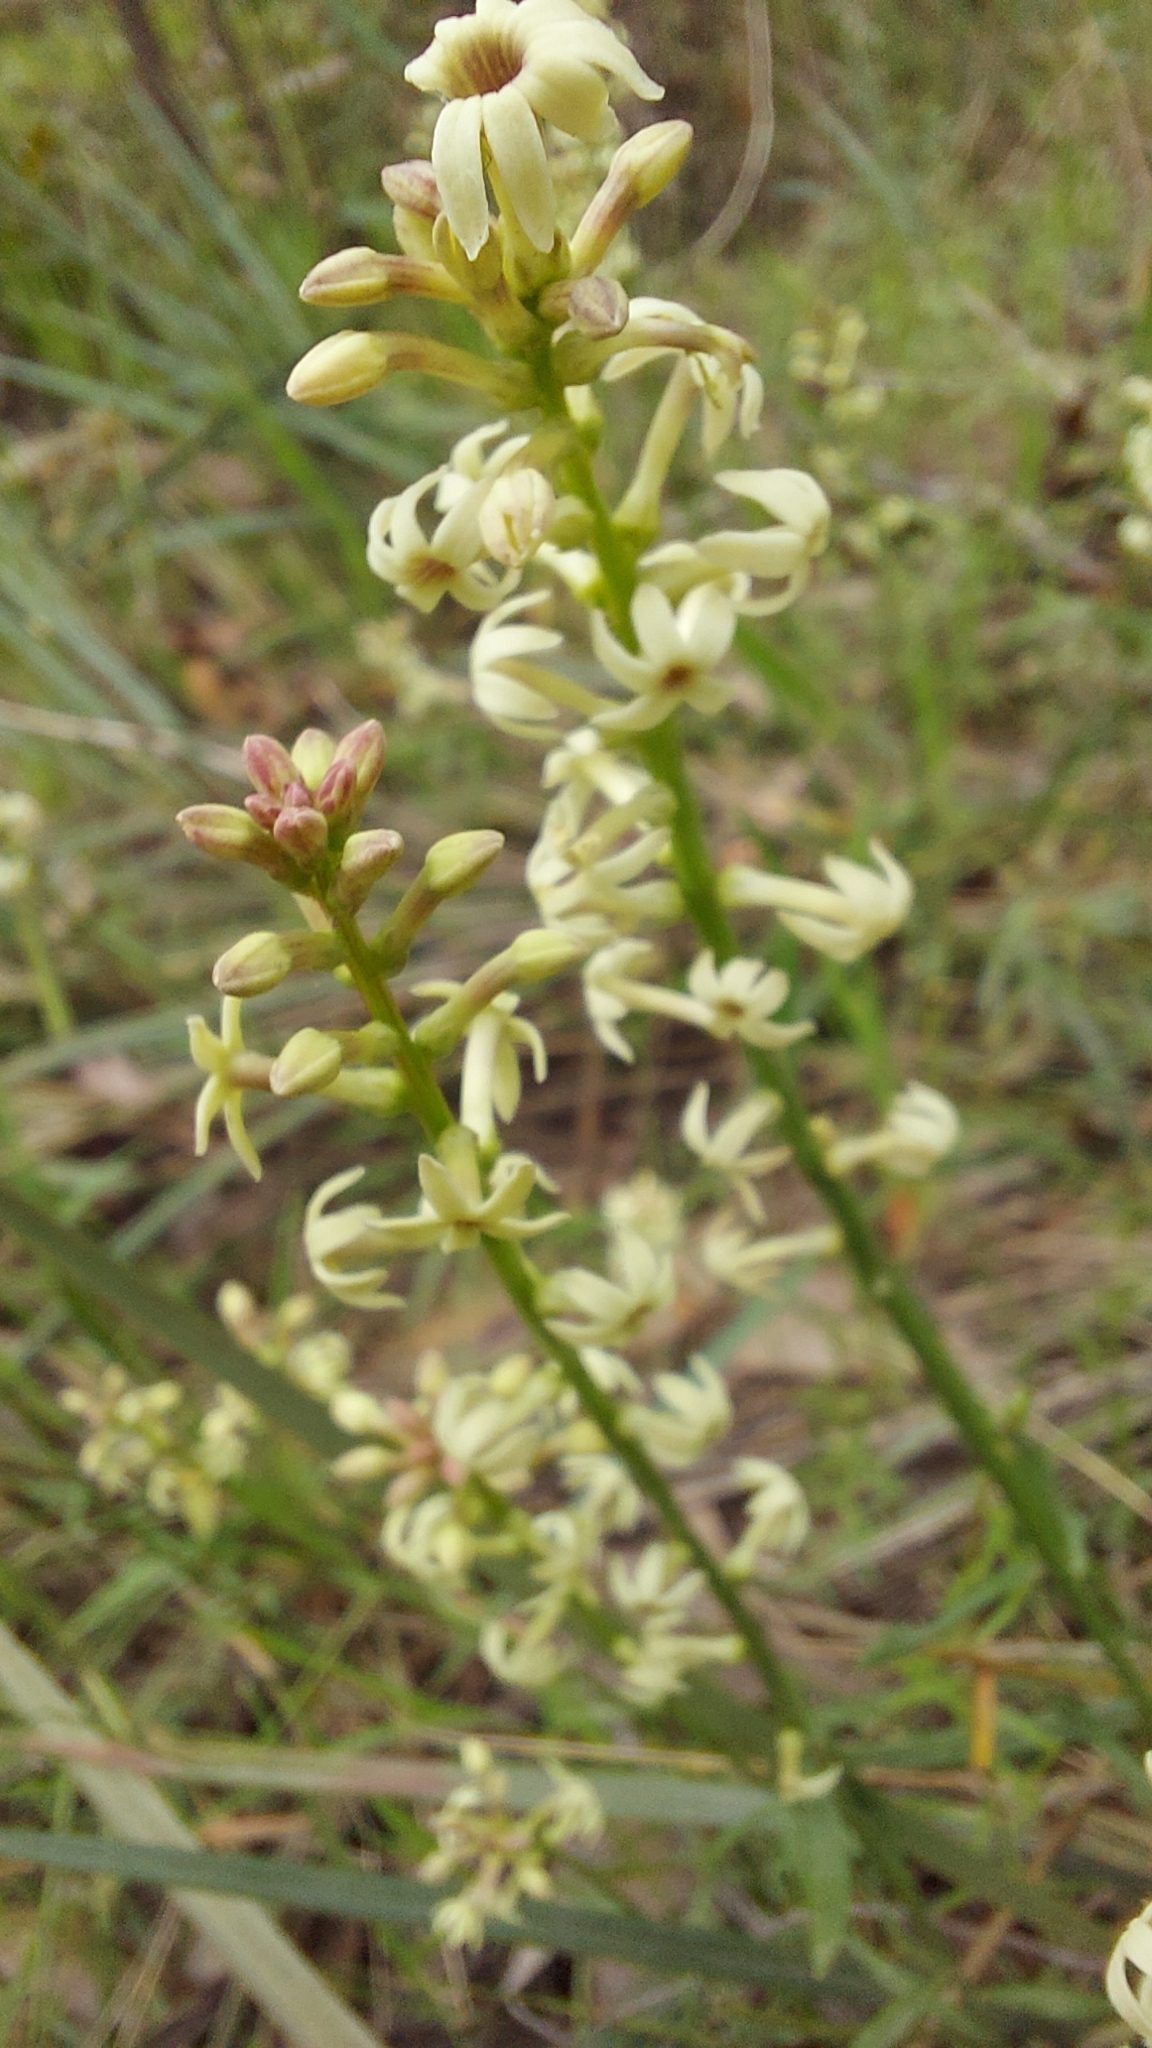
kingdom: Plantae
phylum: Tracheophyta
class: Magnoliopsida
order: Celastrales
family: Celastraceae
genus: Stackhousia
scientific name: Stackhousia monogyna
